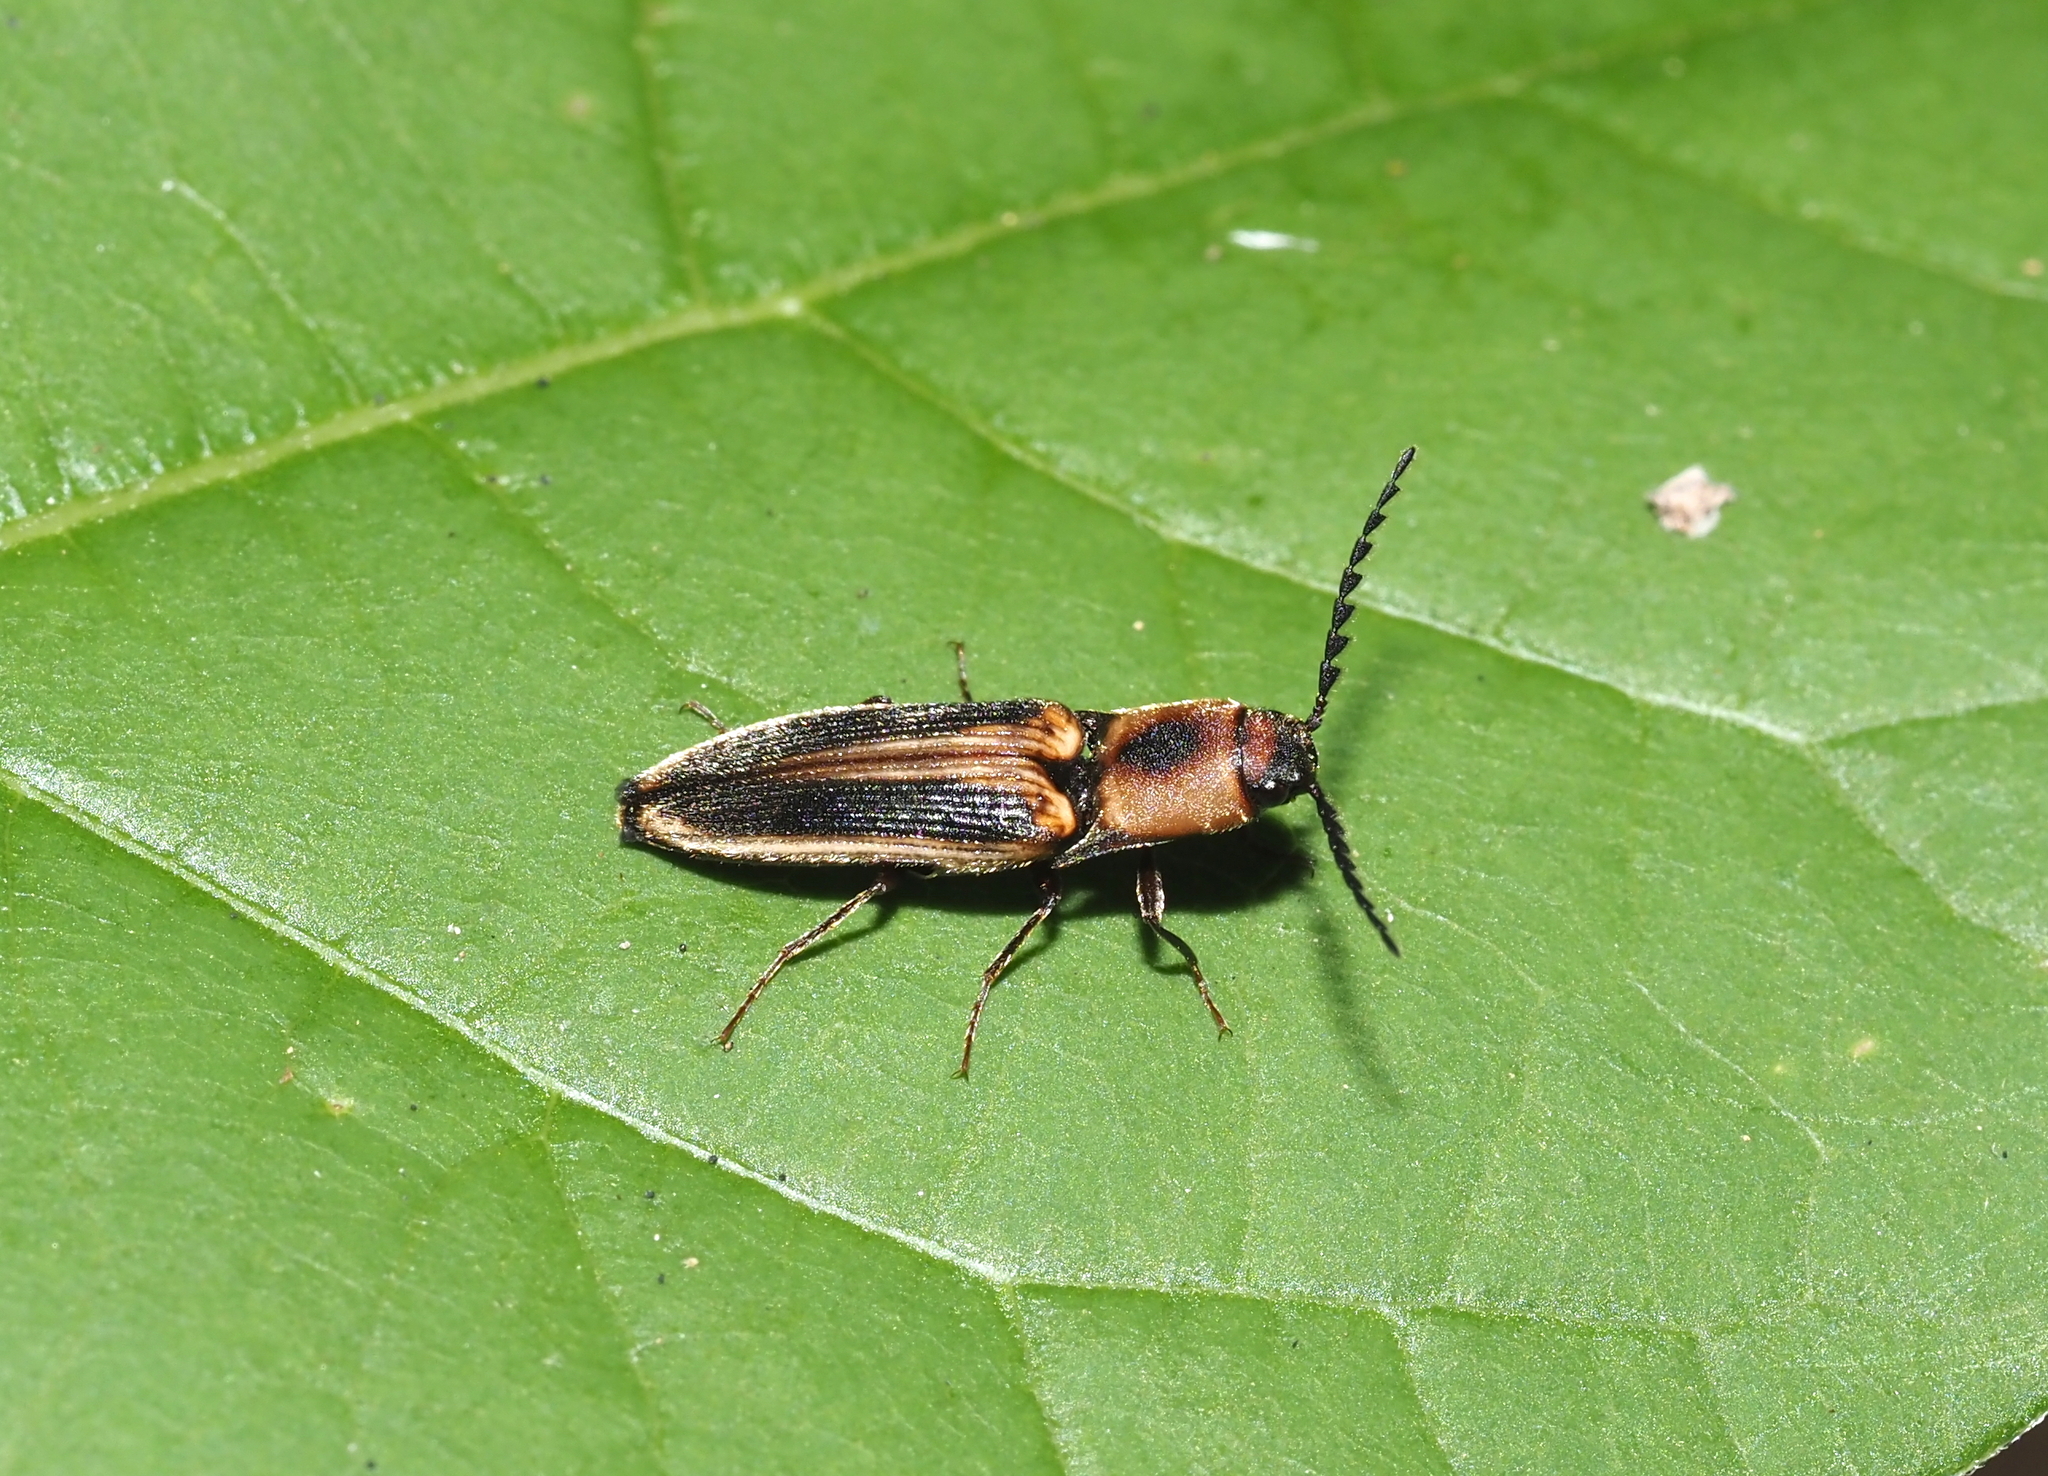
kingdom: Animalia
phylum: Arthropoda
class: Insecta
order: Coleoptera
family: Elateridae
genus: Megapenthes
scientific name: Megapenthes
